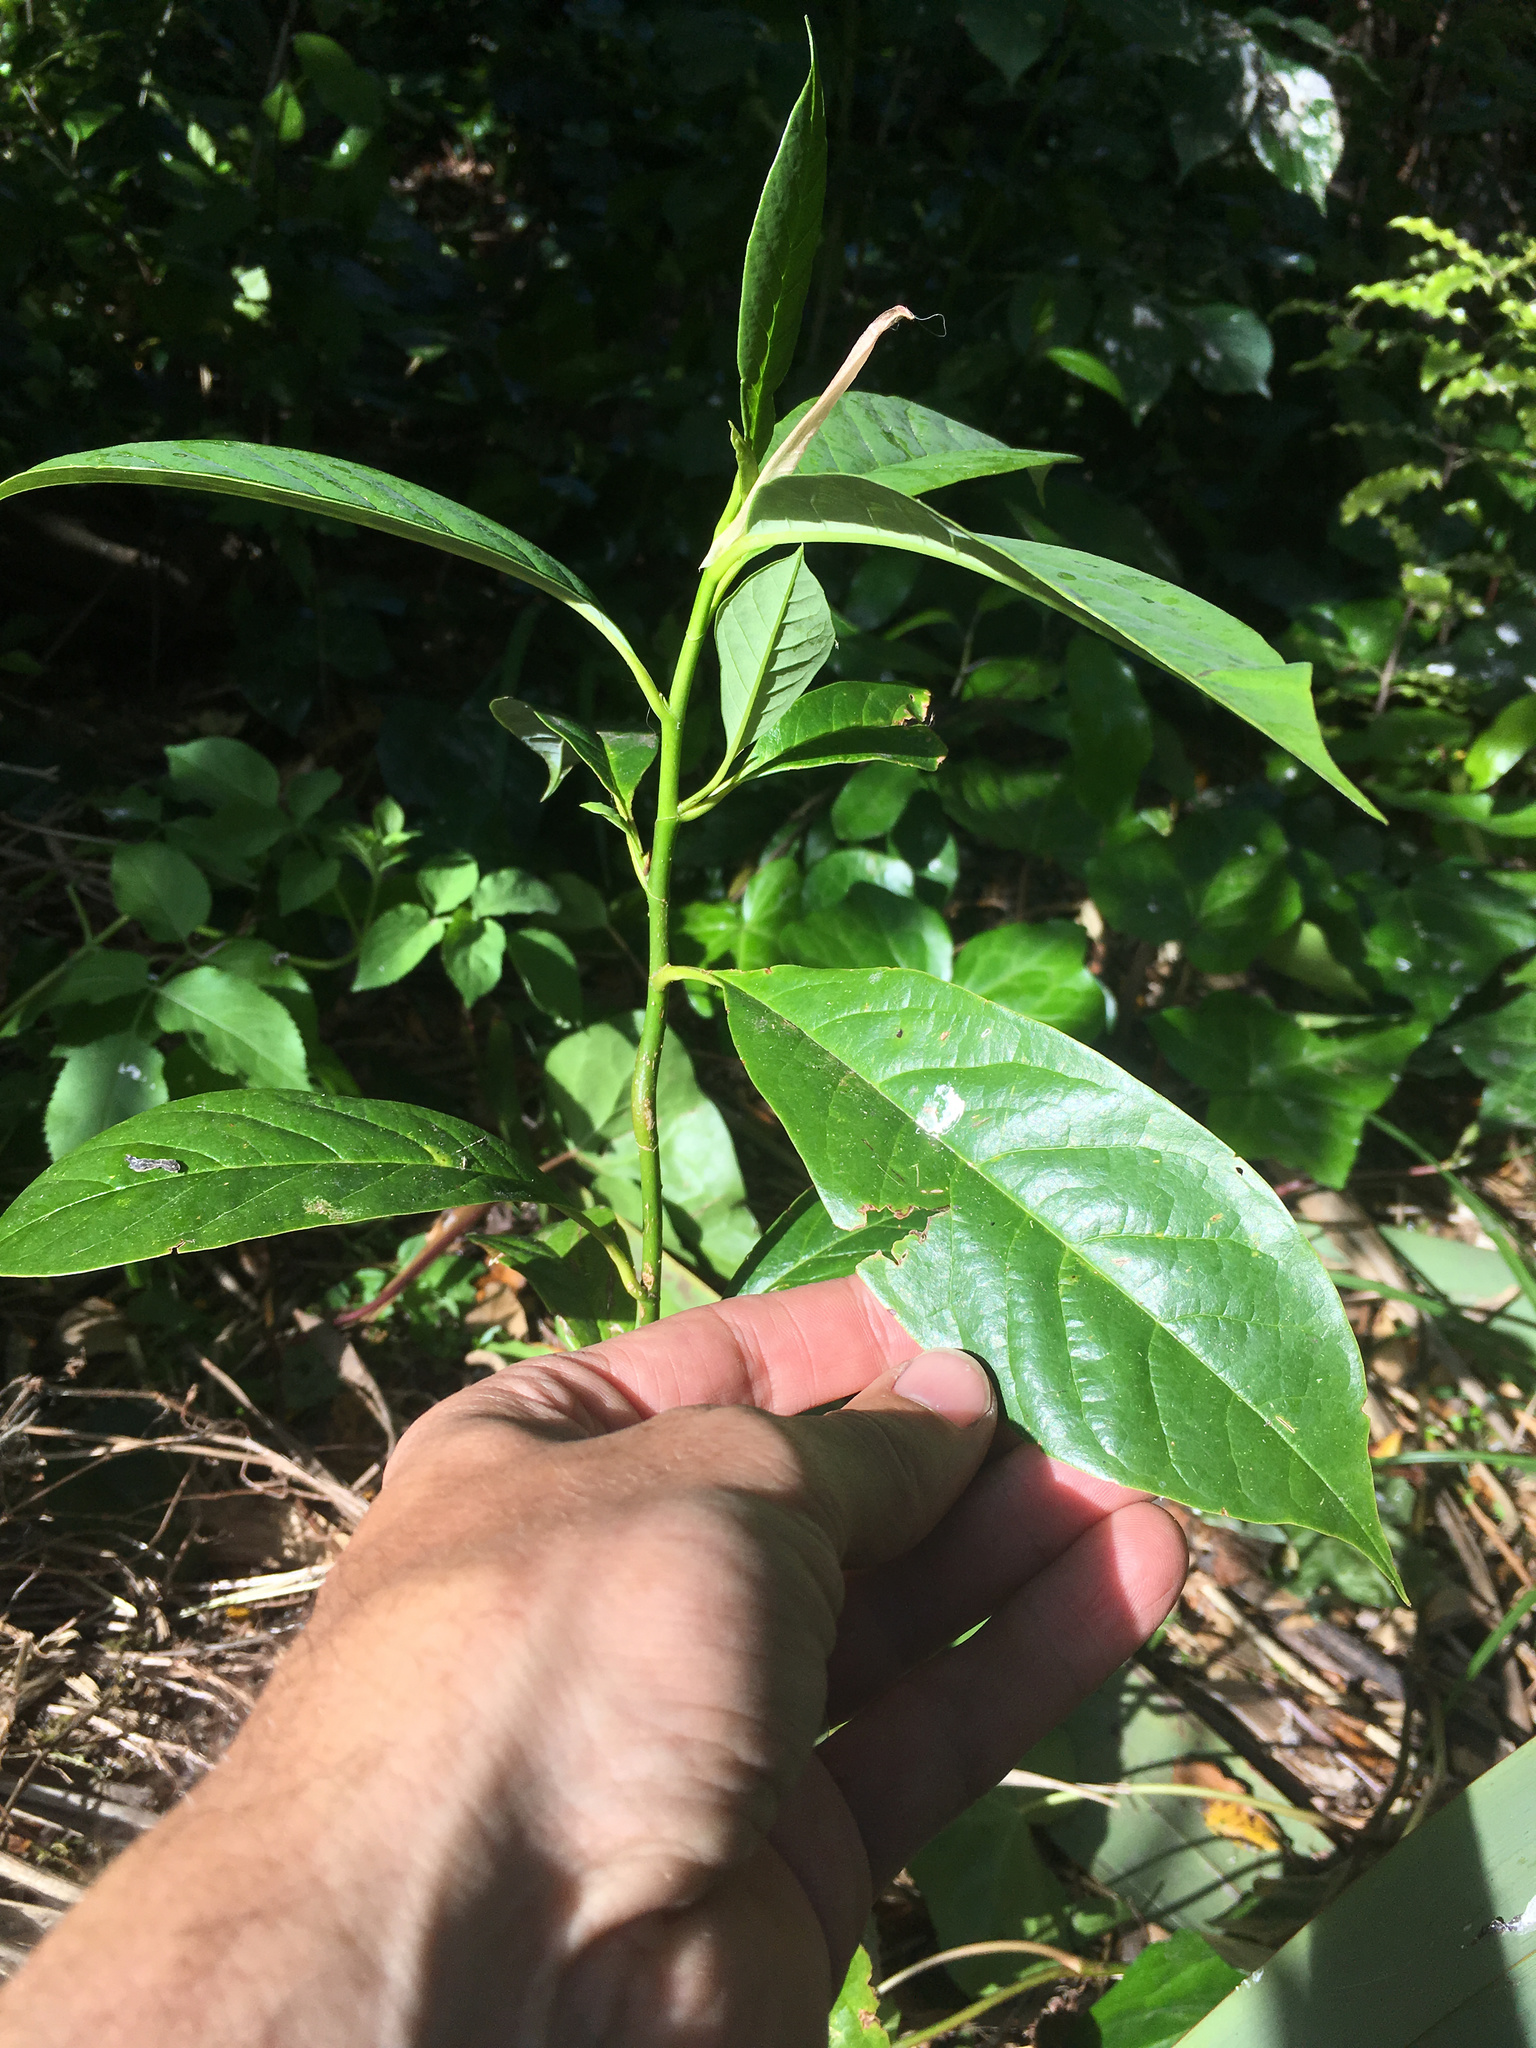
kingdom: Plantae
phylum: Tracheophyta
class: Magnoliopsida
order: Laurales
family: Lauraceae
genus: Persea
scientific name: Persea americana
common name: Avocado
